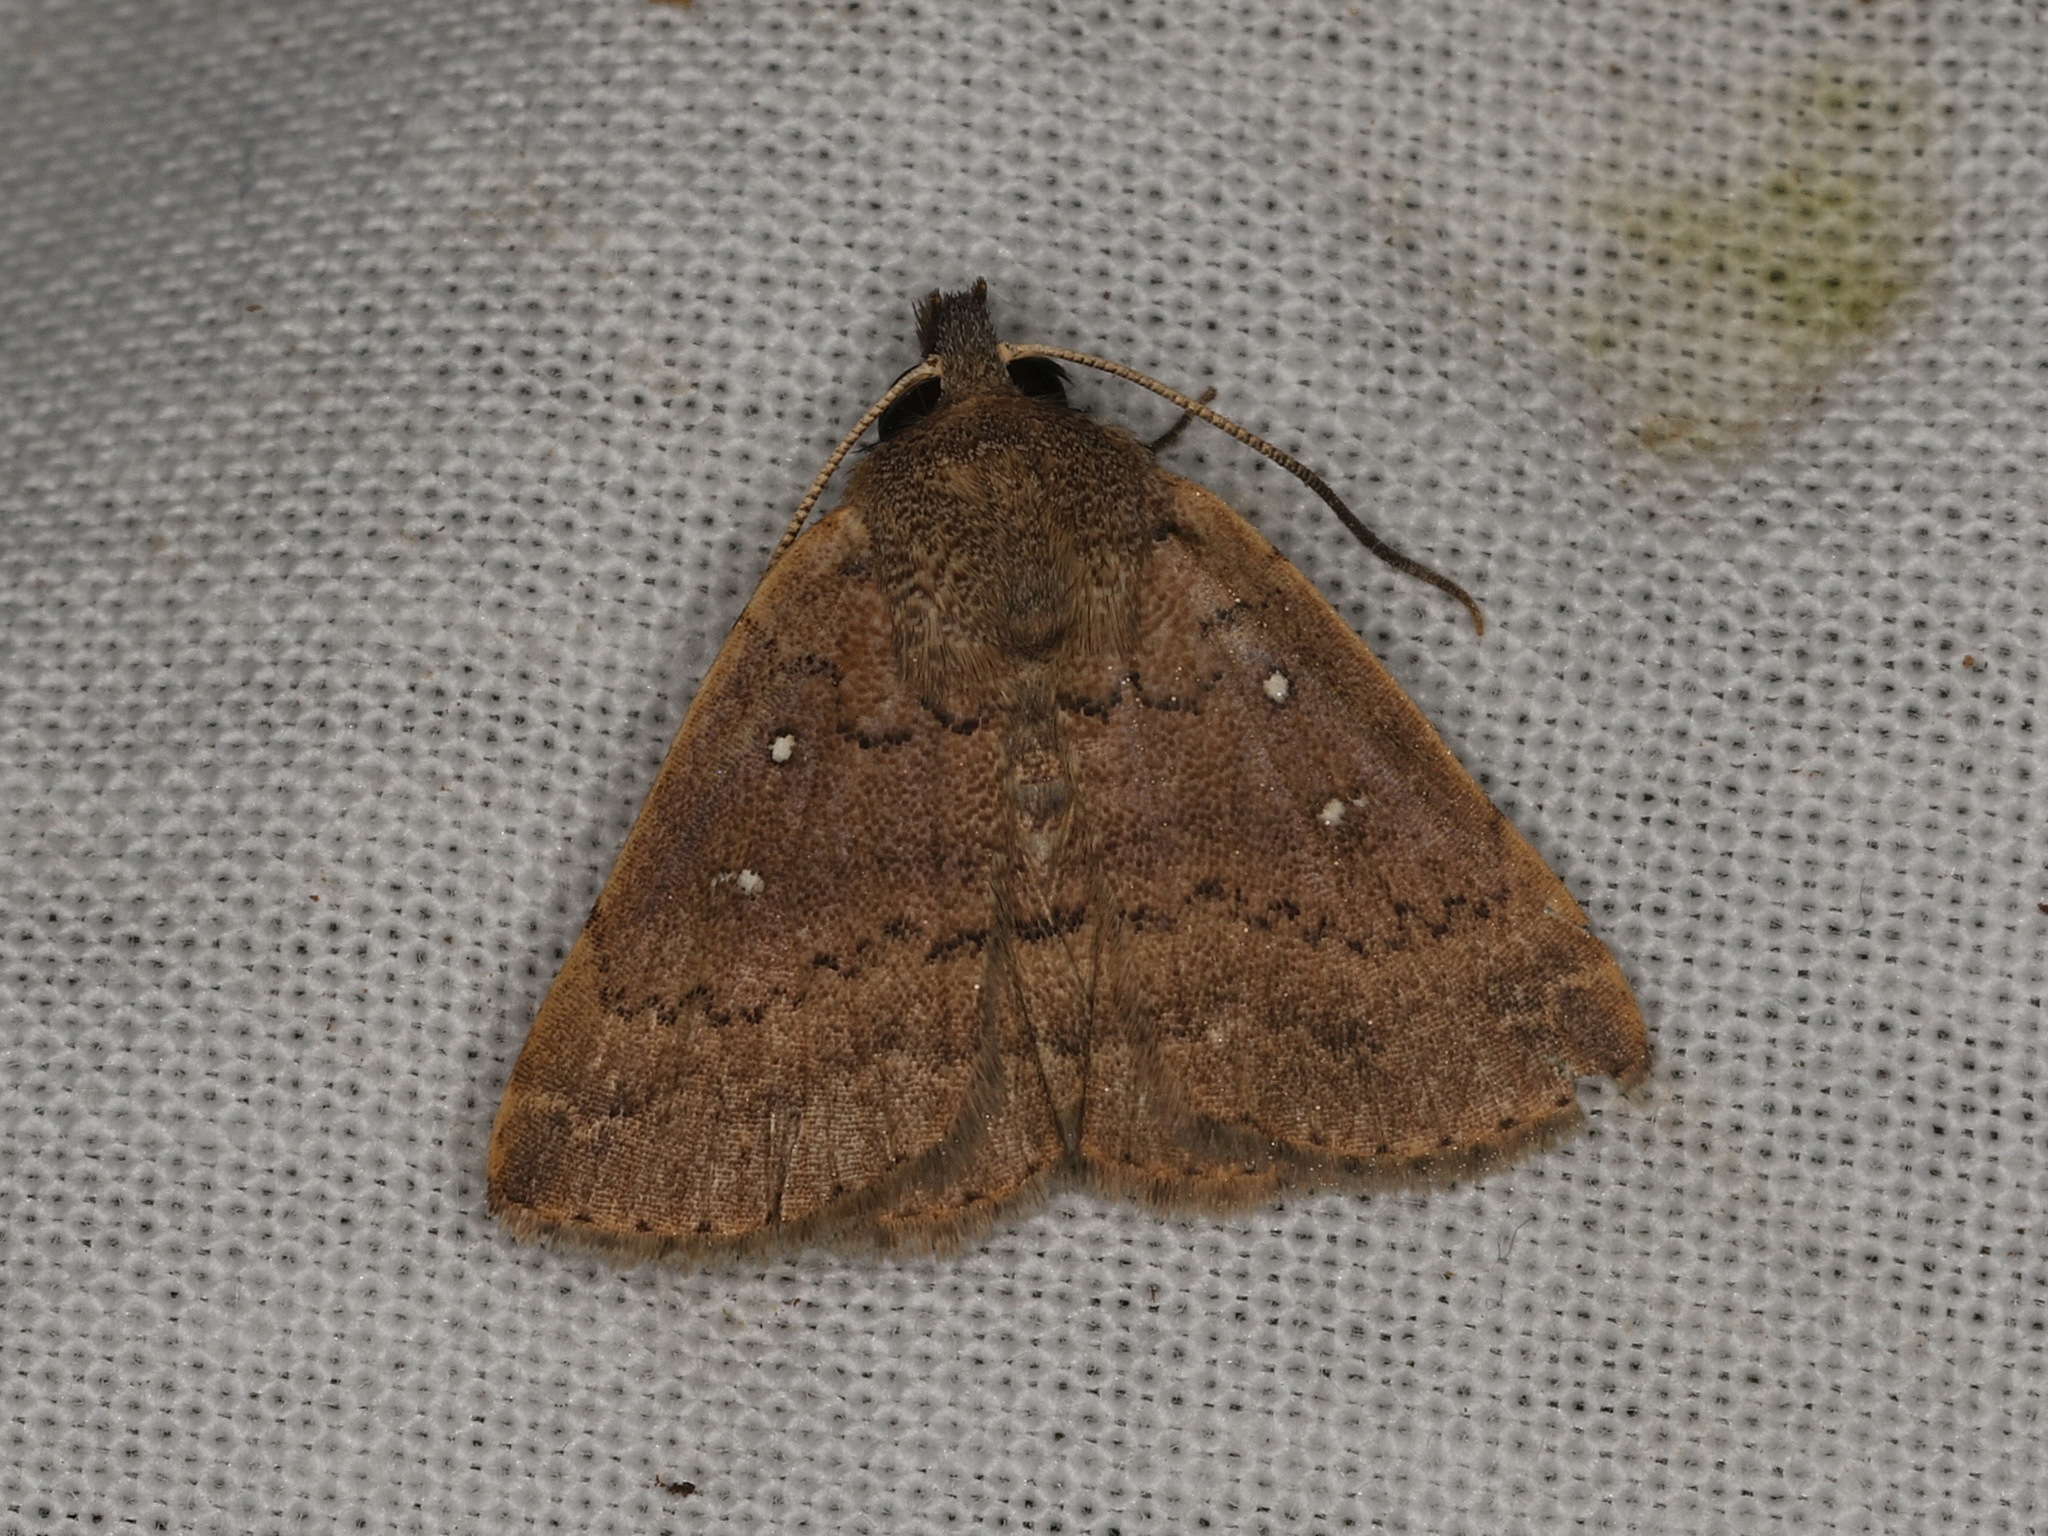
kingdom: Animalia
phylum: Arthropoda
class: Insecta
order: Lepidoptera
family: Erebidae
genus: Dahlia
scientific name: Dahlia capnobela
